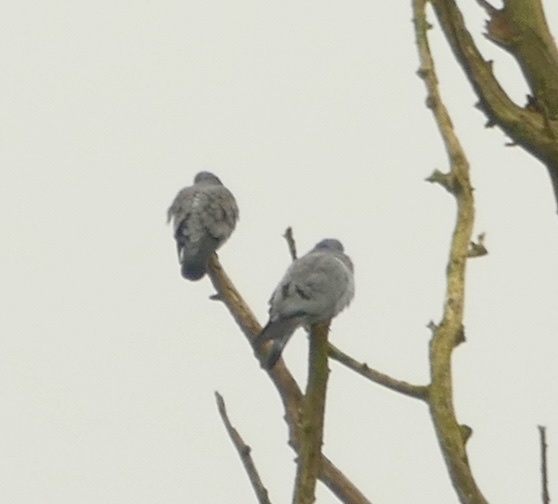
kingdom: Animalia
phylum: Chordata
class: Aves
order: Columbiformes
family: Columbidae
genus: Columba
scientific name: Columba oenas
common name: Stock dove
